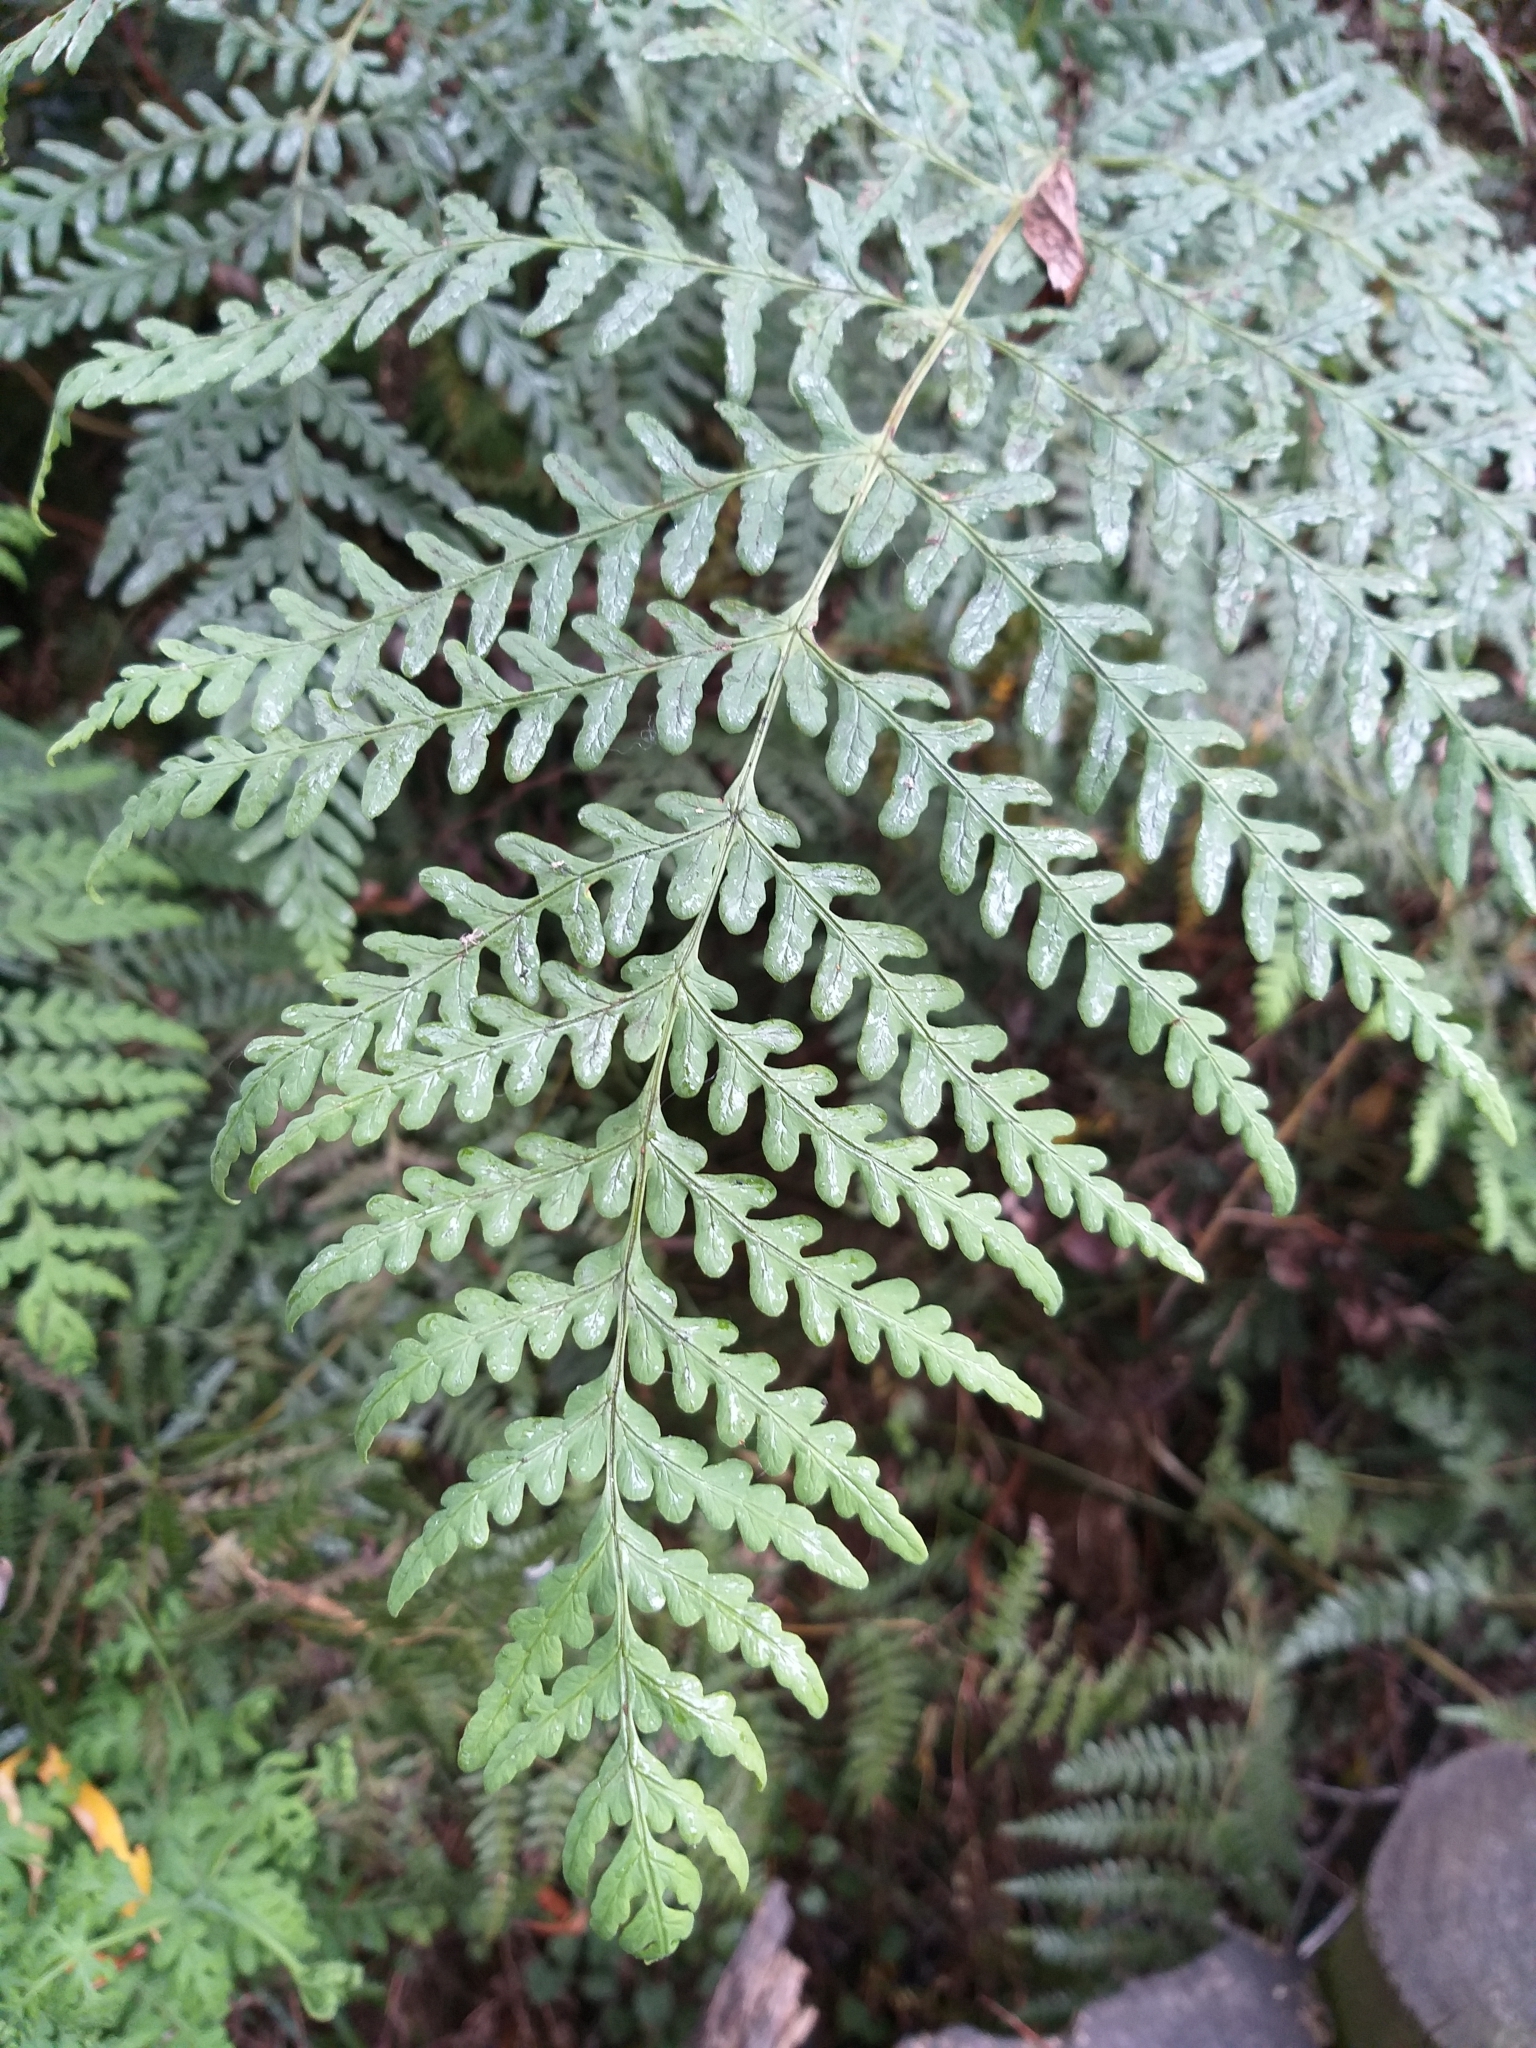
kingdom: Plantae
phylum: Tracheophyta
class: Polypodiopsida
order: Polypodiales
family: Dennstaedtiaceae
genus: Histiopteris
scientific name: Histiopteris incisa
